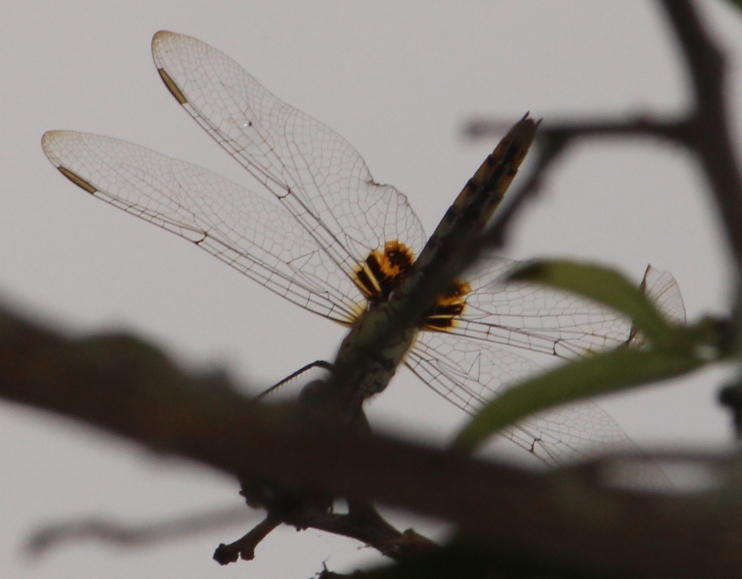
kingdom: Animalia
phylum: Arthropoda
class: Insecta
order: Odonata
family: Libellulidae
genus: Urothemis
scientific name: Urothemis edwardsii
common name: Blue basker
